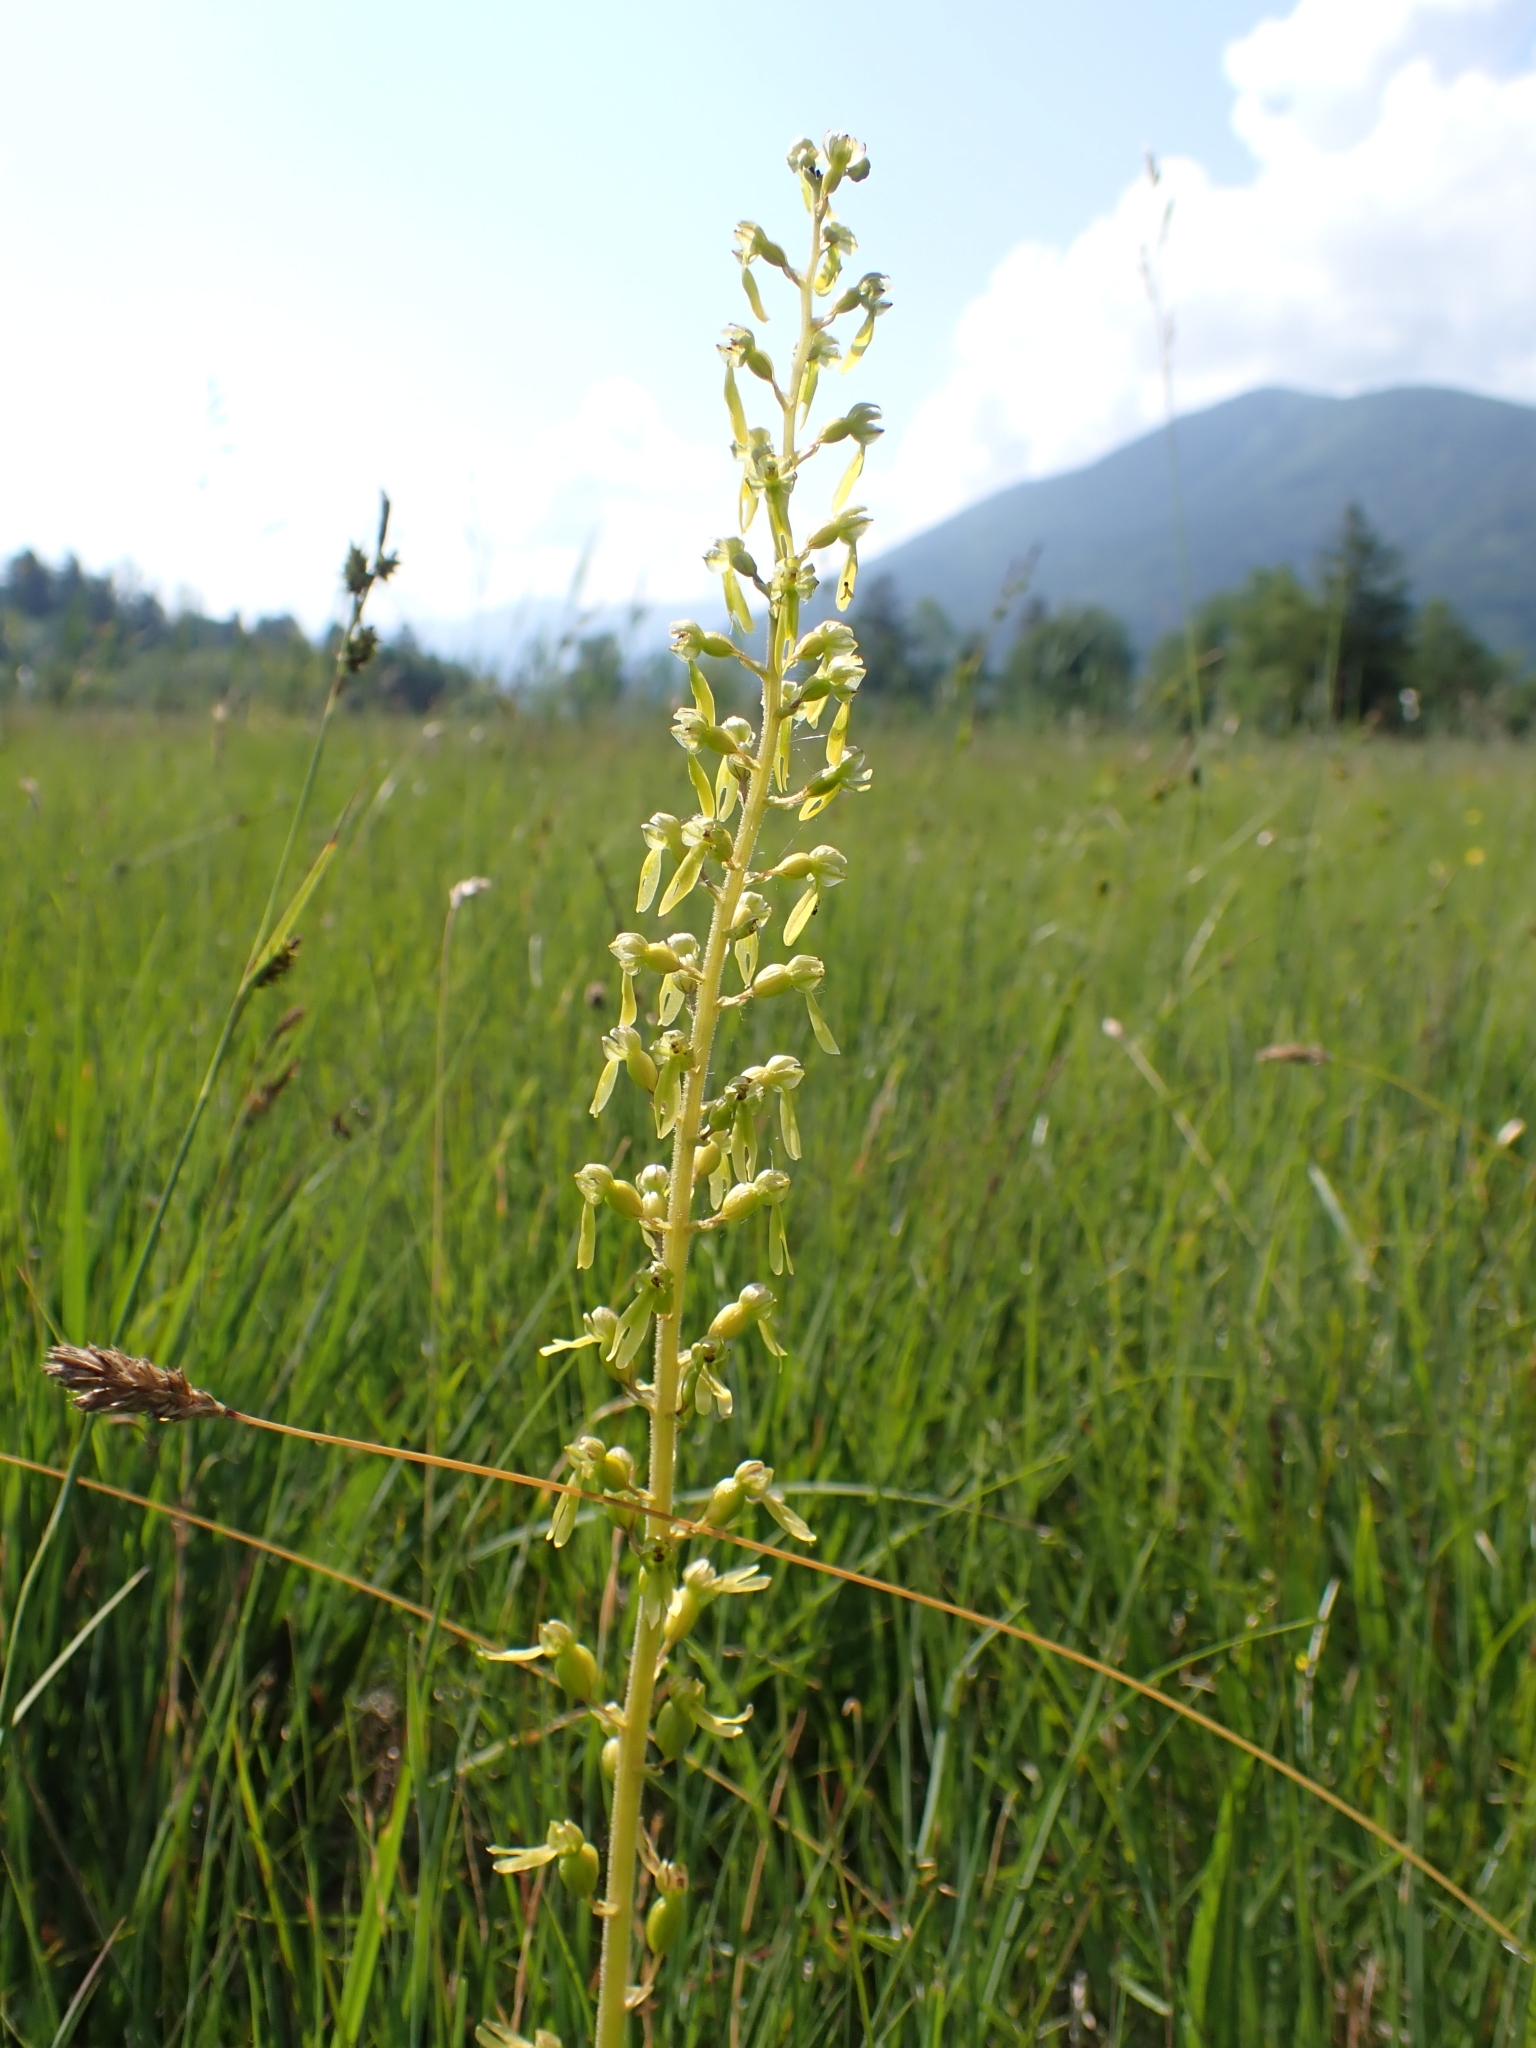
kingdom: Plantae
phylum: Tracheophyta
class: Liliopsida
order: Asparagales
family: Orchidaceae
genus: Neottia
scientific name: Neottia ovata
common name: Common twayblade
